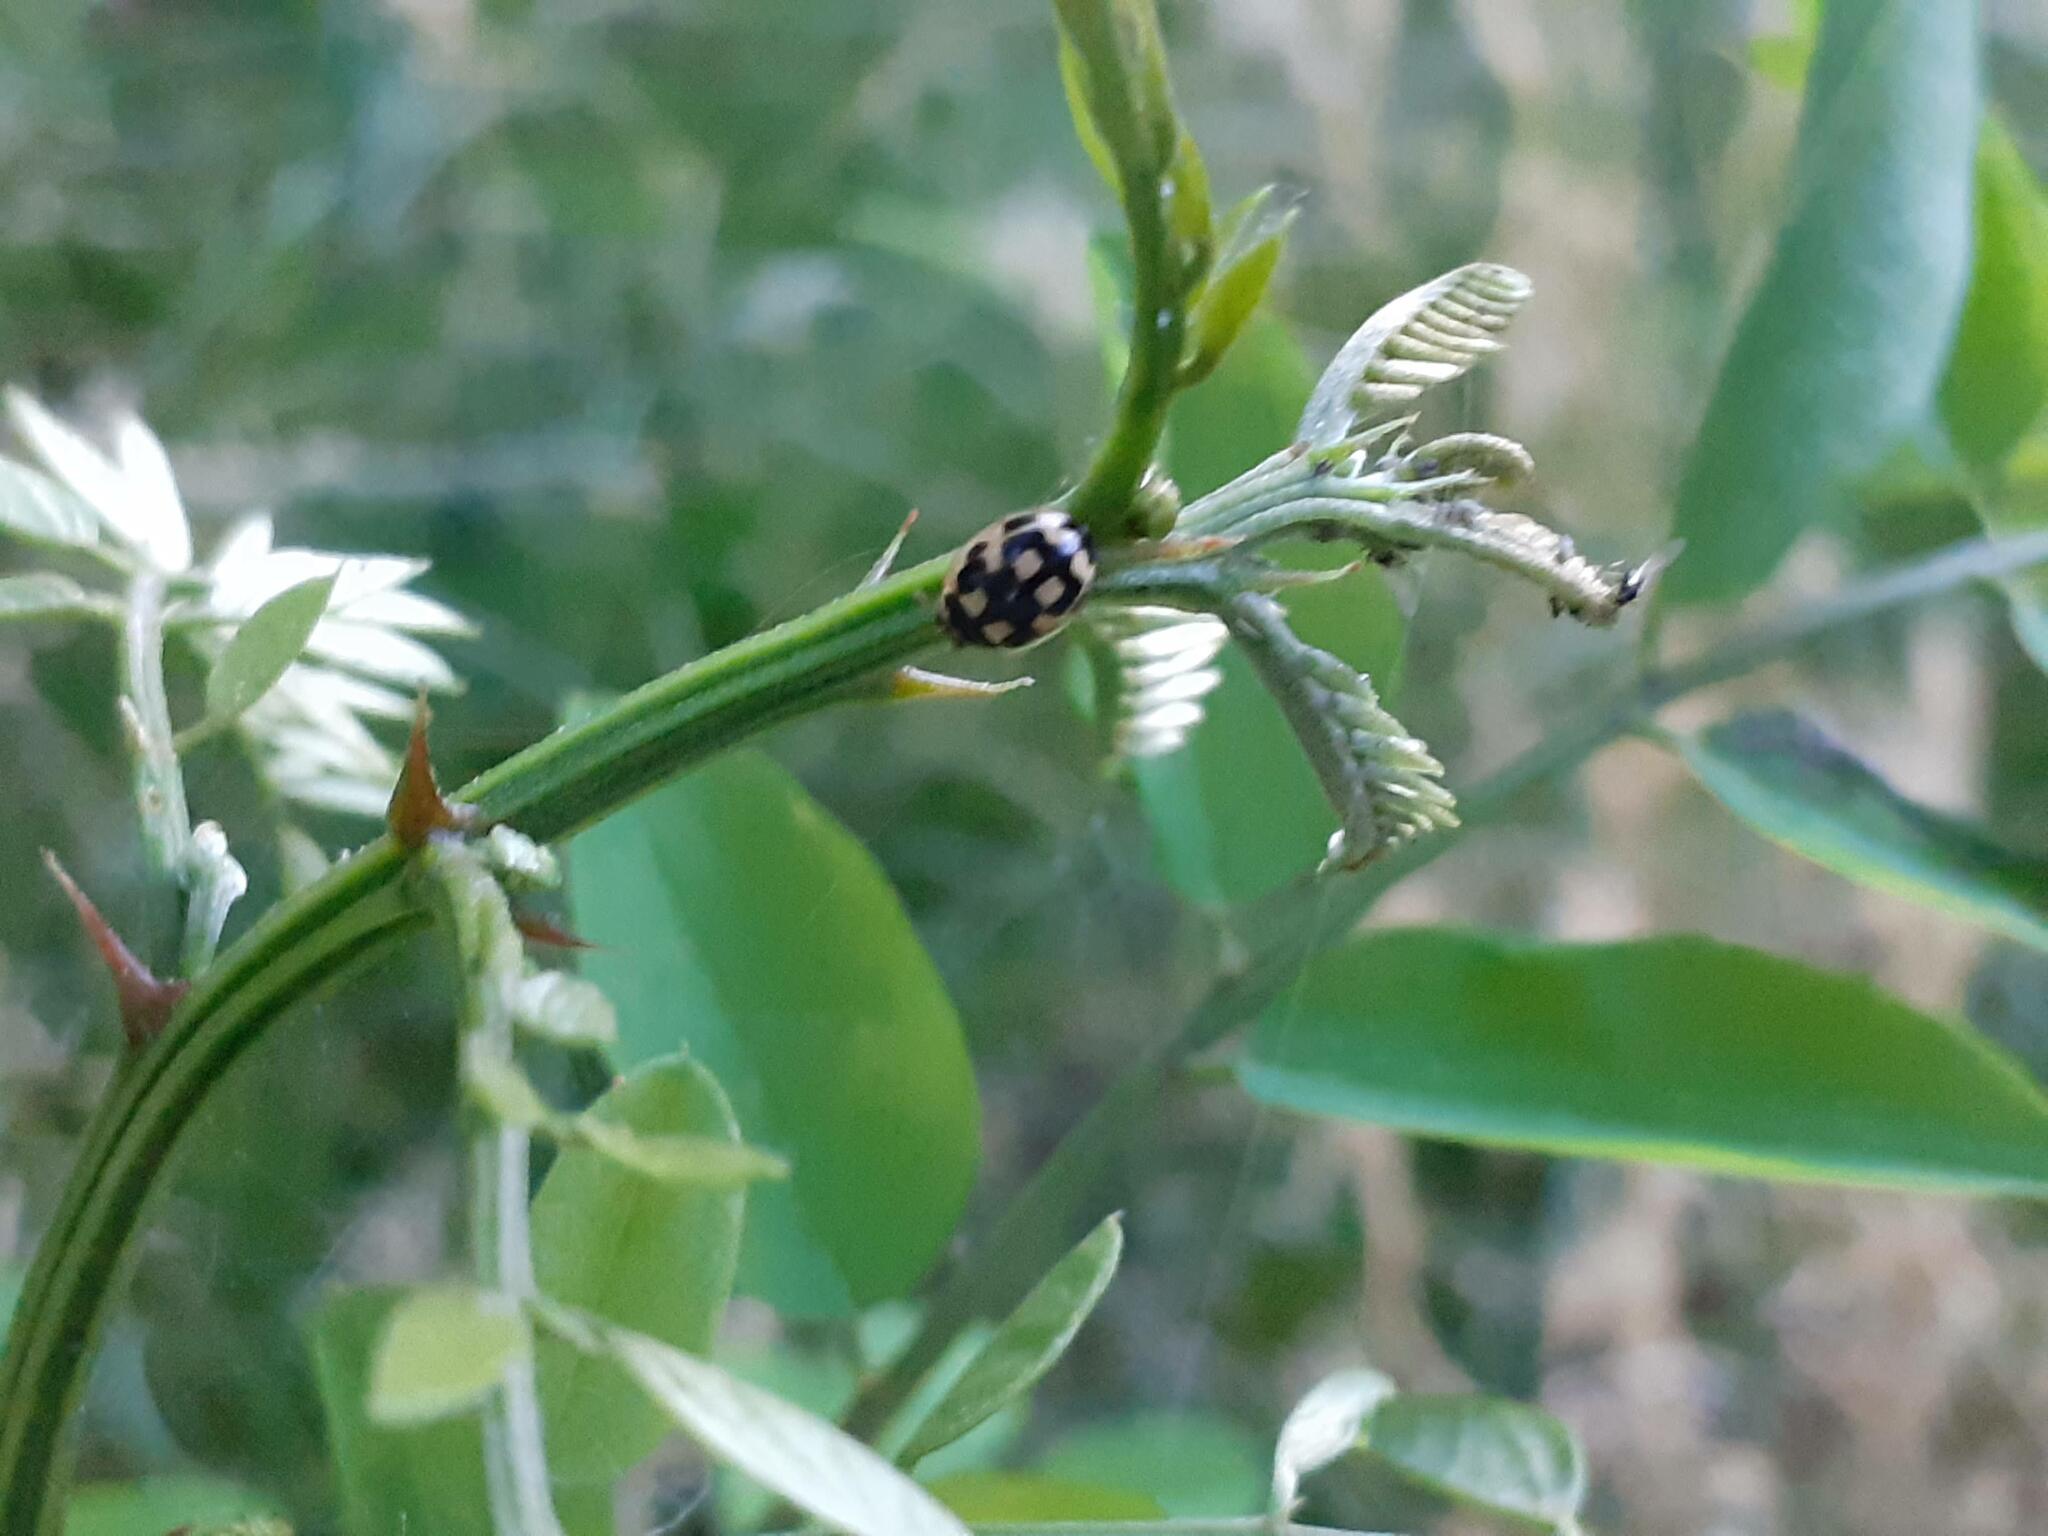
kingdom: Animalia
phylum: Arthropoda
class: Insecta
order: Coleoptera
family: Coccinellidae
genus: Propylaea
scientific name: Propylaea quatuordecimpunctata
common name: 14-spotted ladybird beetle
